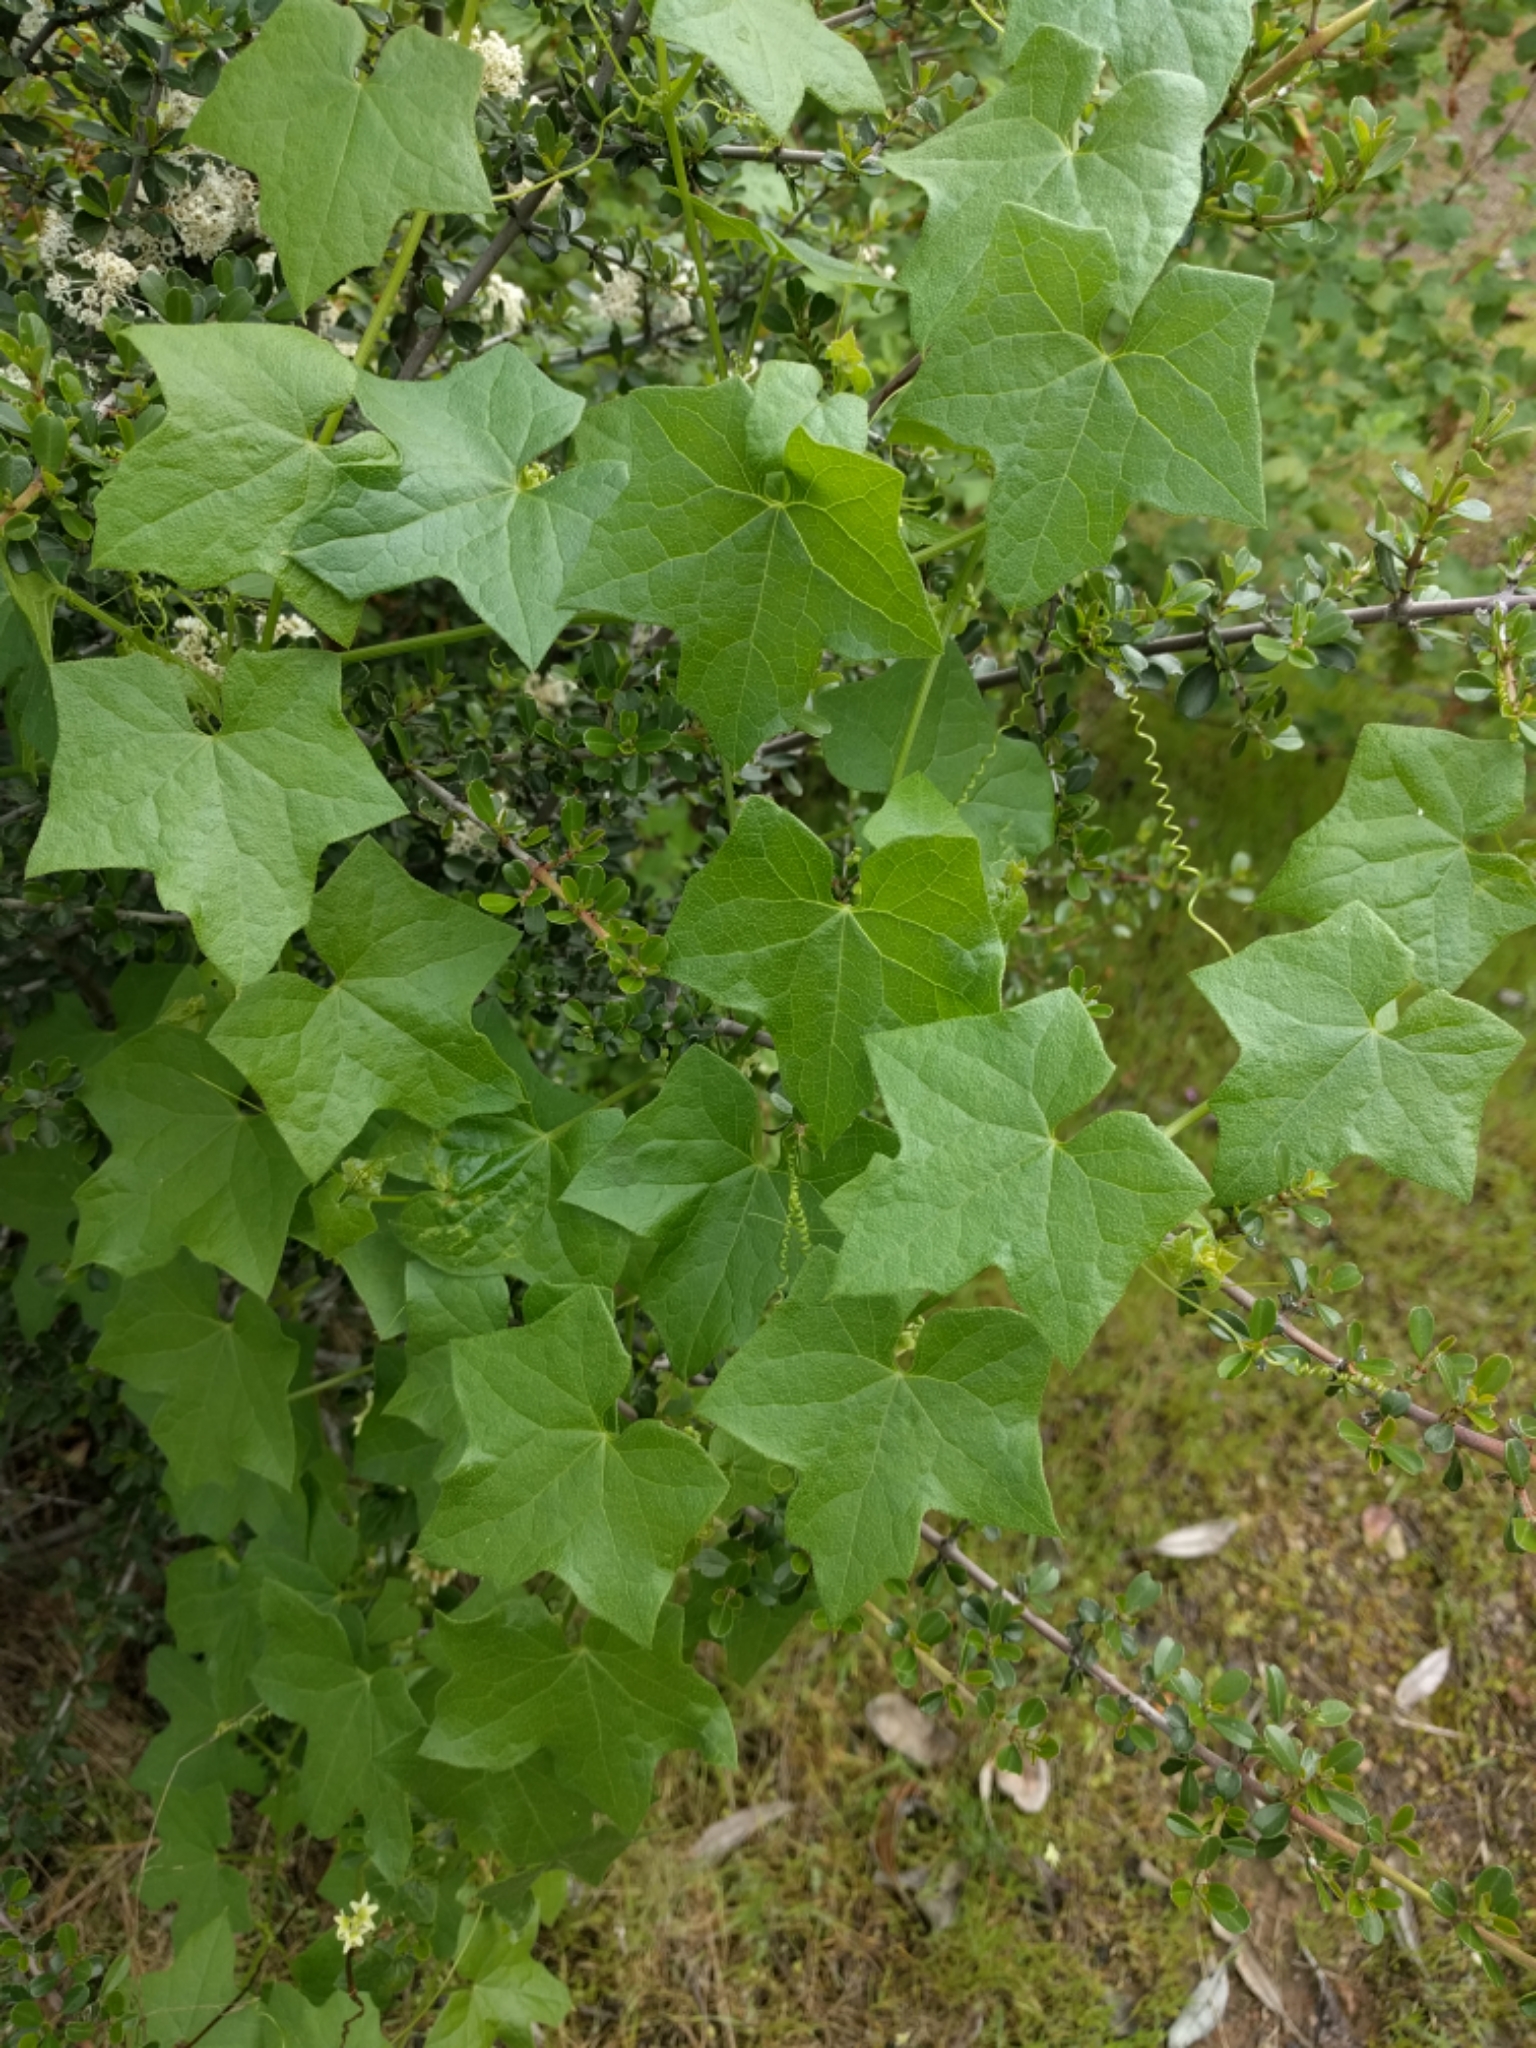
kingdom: Plantae
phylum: Tracheophyta
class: Magnoliopsida
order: Cucurbitales
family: Cucurbitaceae
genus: Marah
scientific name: Marah fabacea
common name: California manroot
